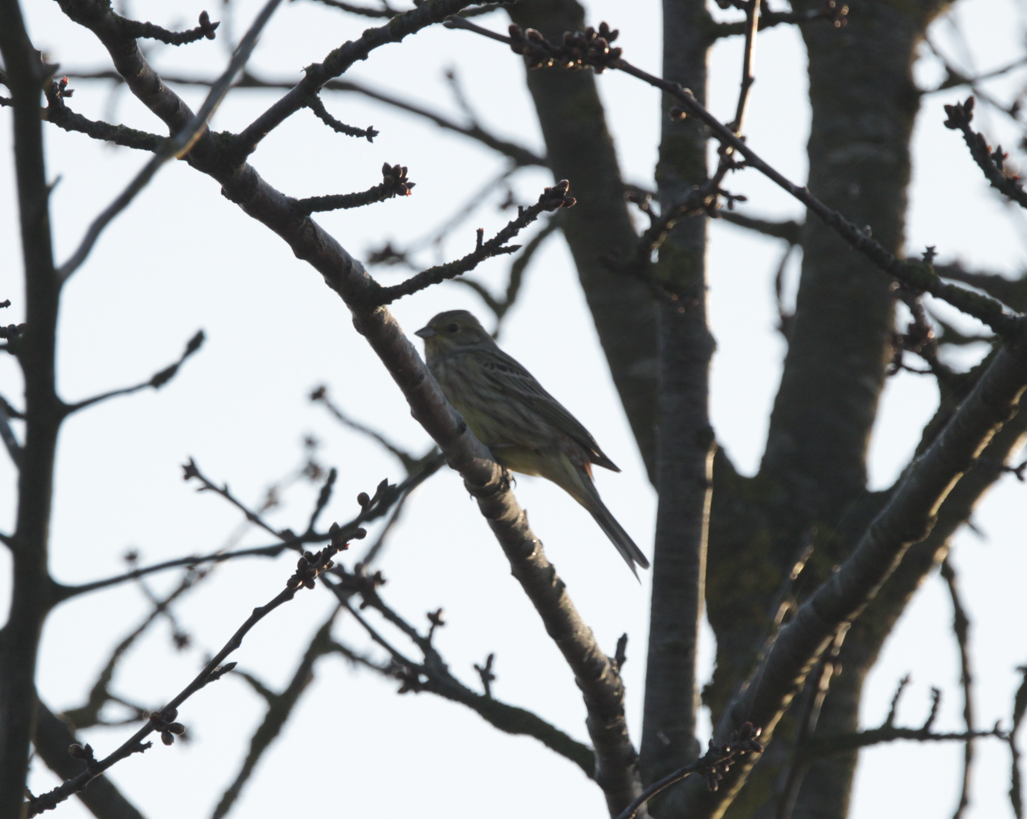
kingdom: Animalia
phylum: Chordata
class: Aves
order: Passeriformes
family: Emberizidae
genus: Emberiza
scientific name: Emberiza citrinella
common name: Yellowhammer
